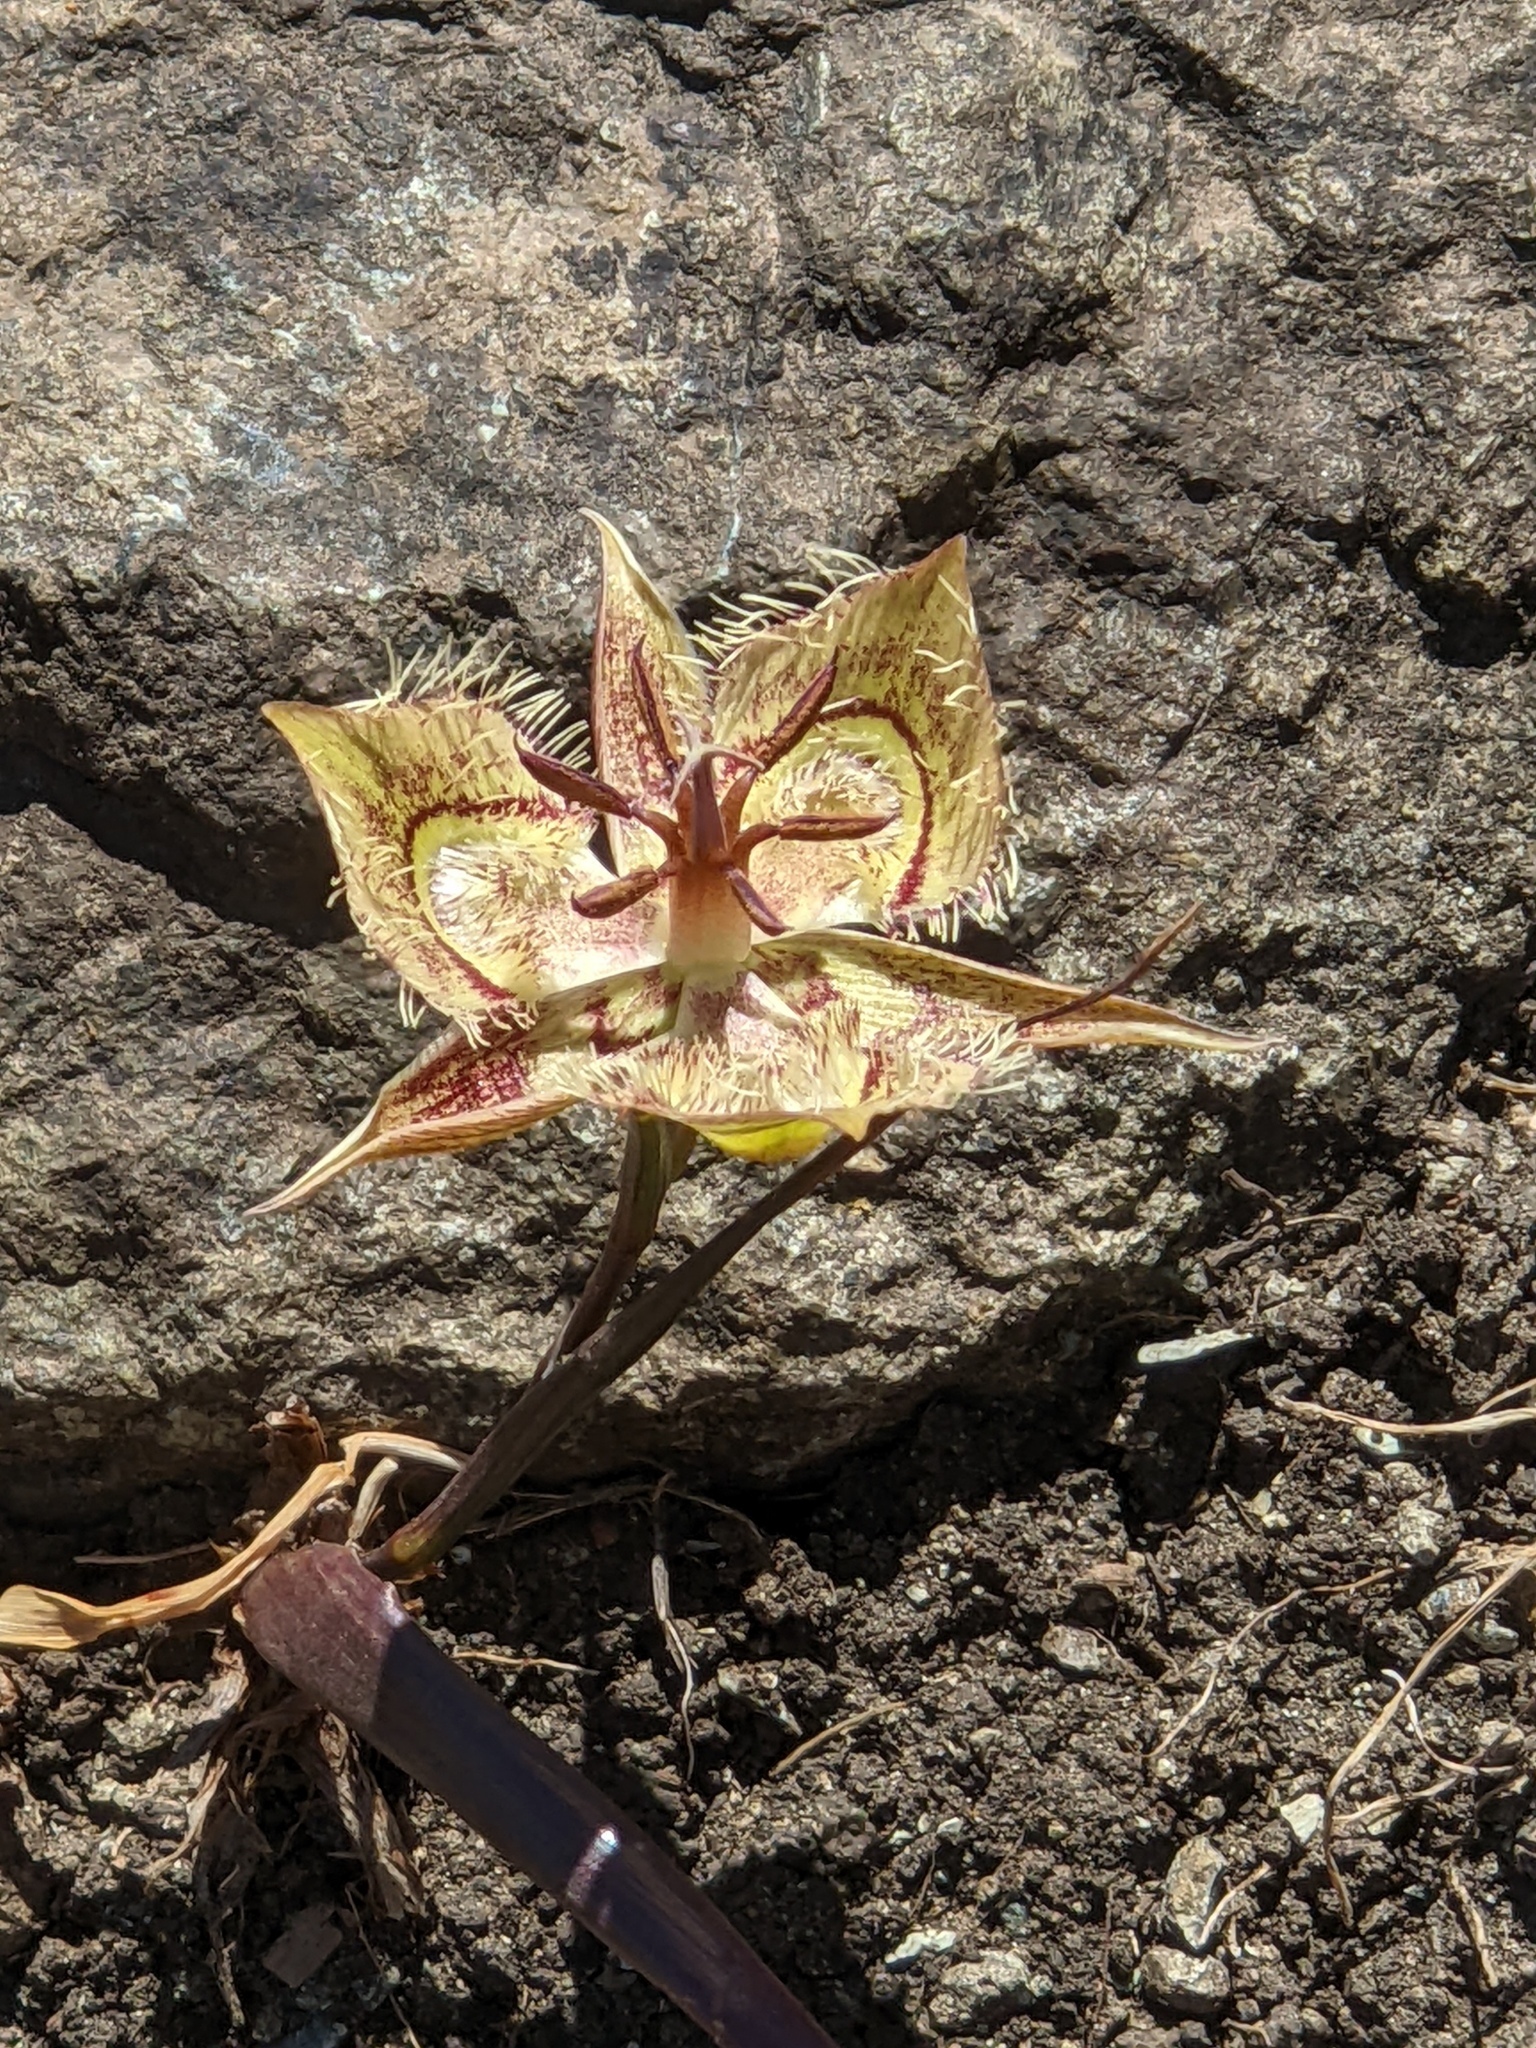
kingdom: Plantae
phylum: Tracheophyta
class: Liliopsida
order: Liliales
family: Liliaceae
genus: Calochortus
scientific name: Calochortus tiburonensis
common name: Tiburon mariposa-lily
